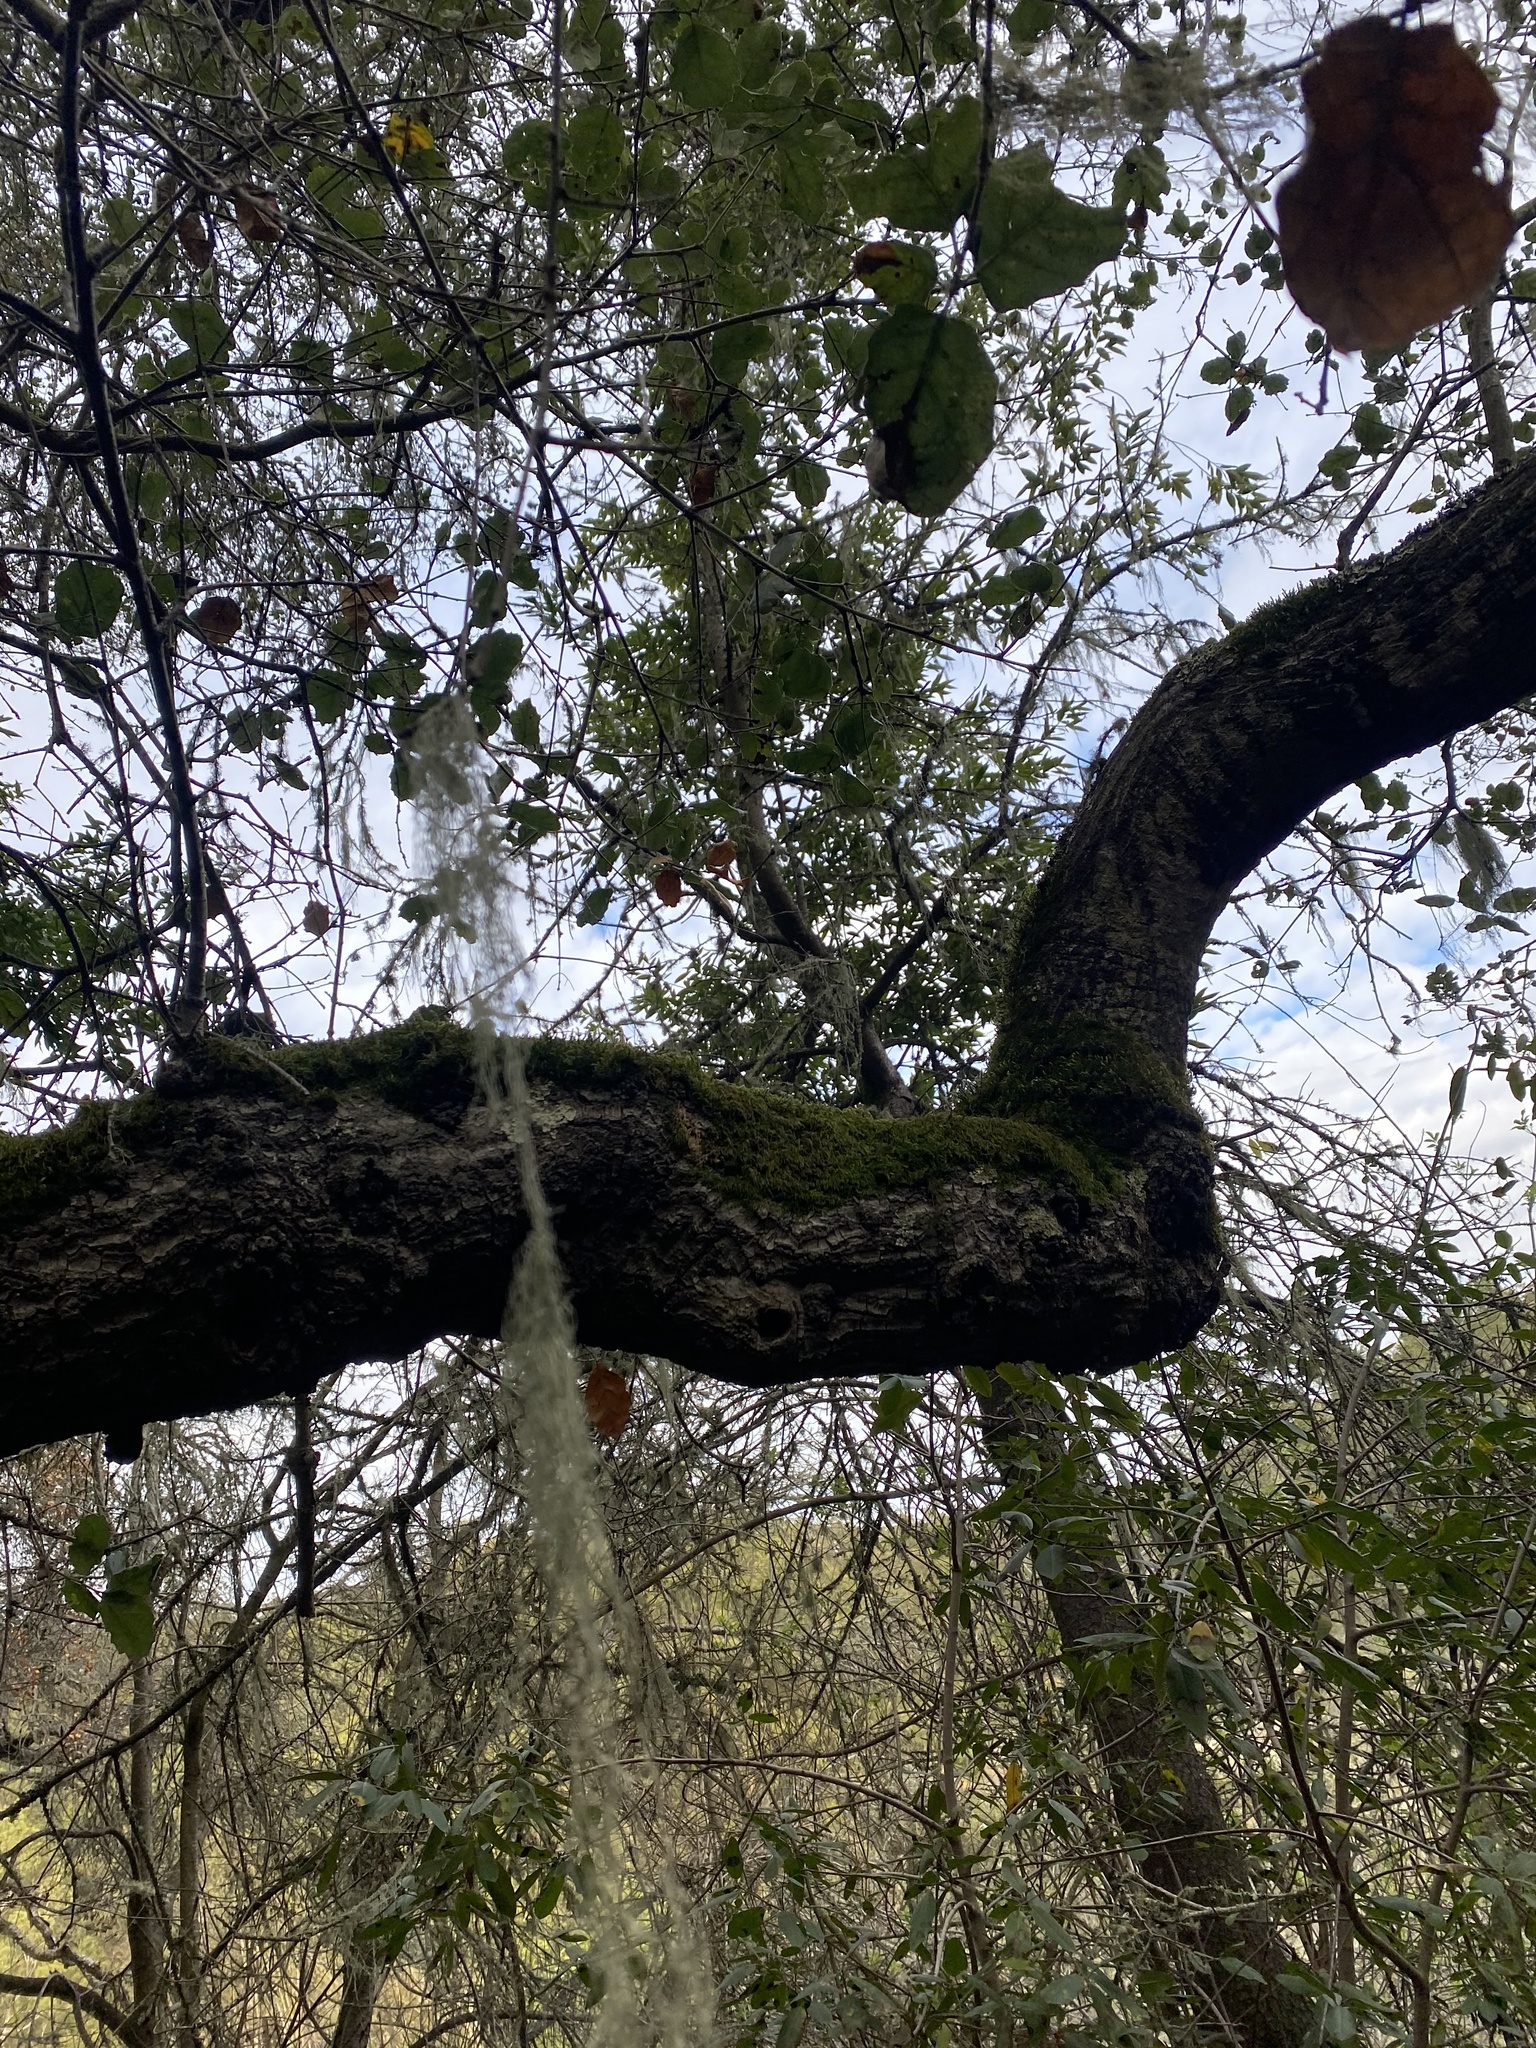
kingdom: Fungi
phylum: Ascomycota
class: Lecanoromycetes
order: Lecanorales
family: Ramalinaceae
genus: Ramalina
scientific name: Ramalina menziesii
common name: Lace lichen
